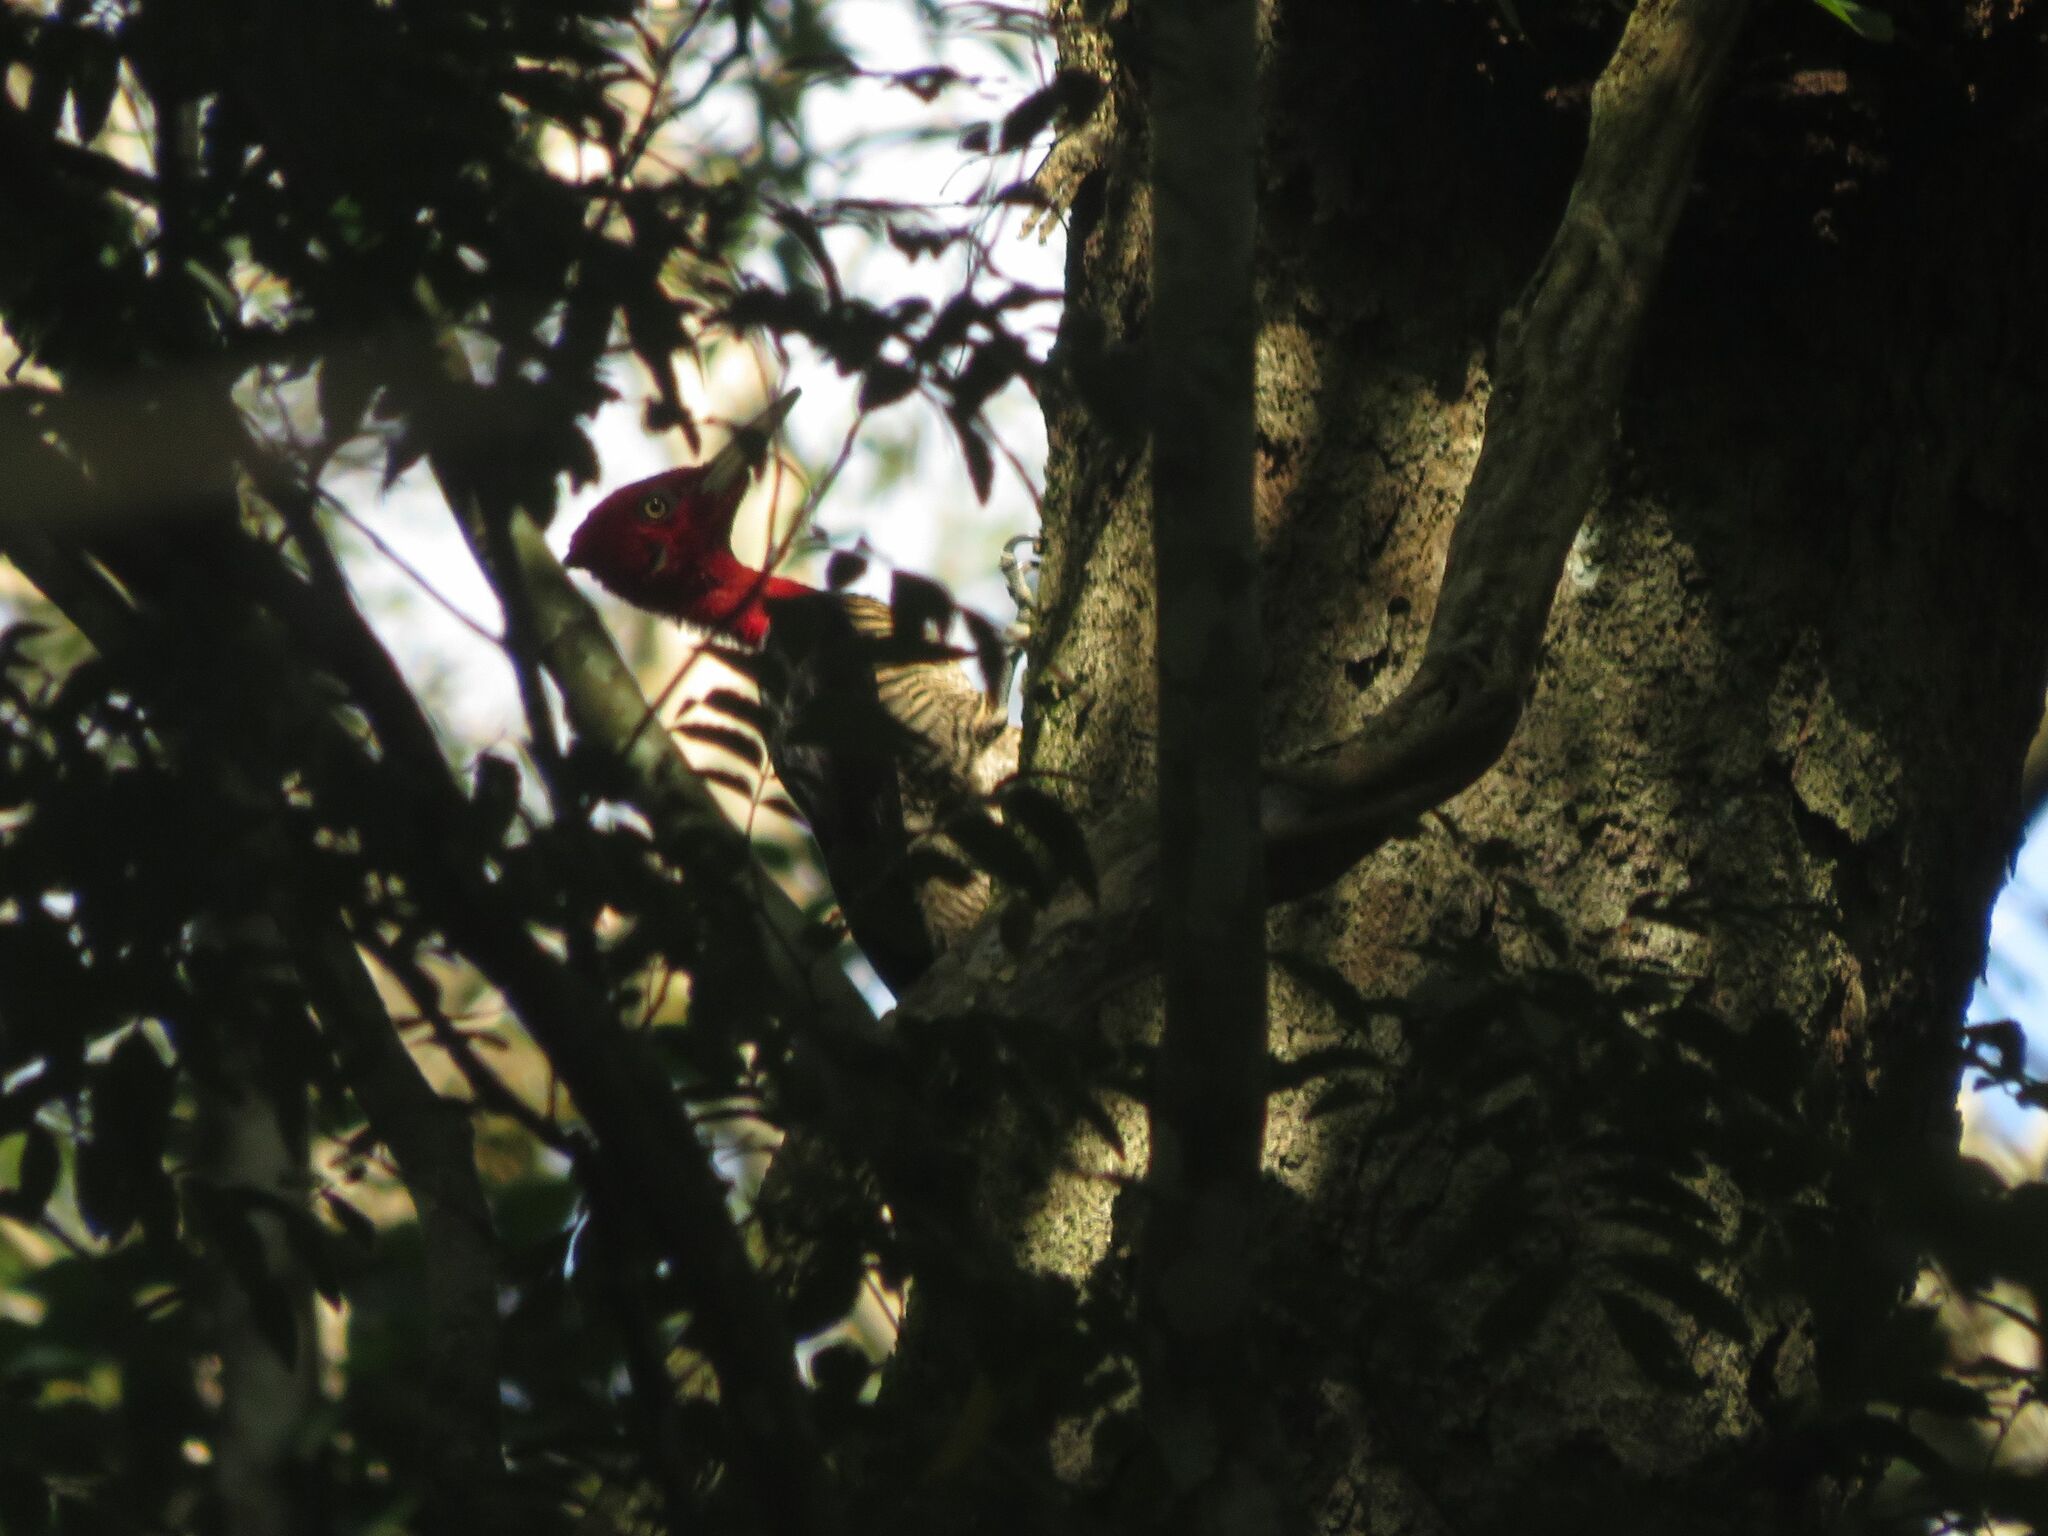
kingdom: Animalia
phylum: Chordata
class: Aves
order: Piciformes
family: Picidae
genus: Campephilus
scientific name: Campephilus robustus
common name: Robust woodpecker
